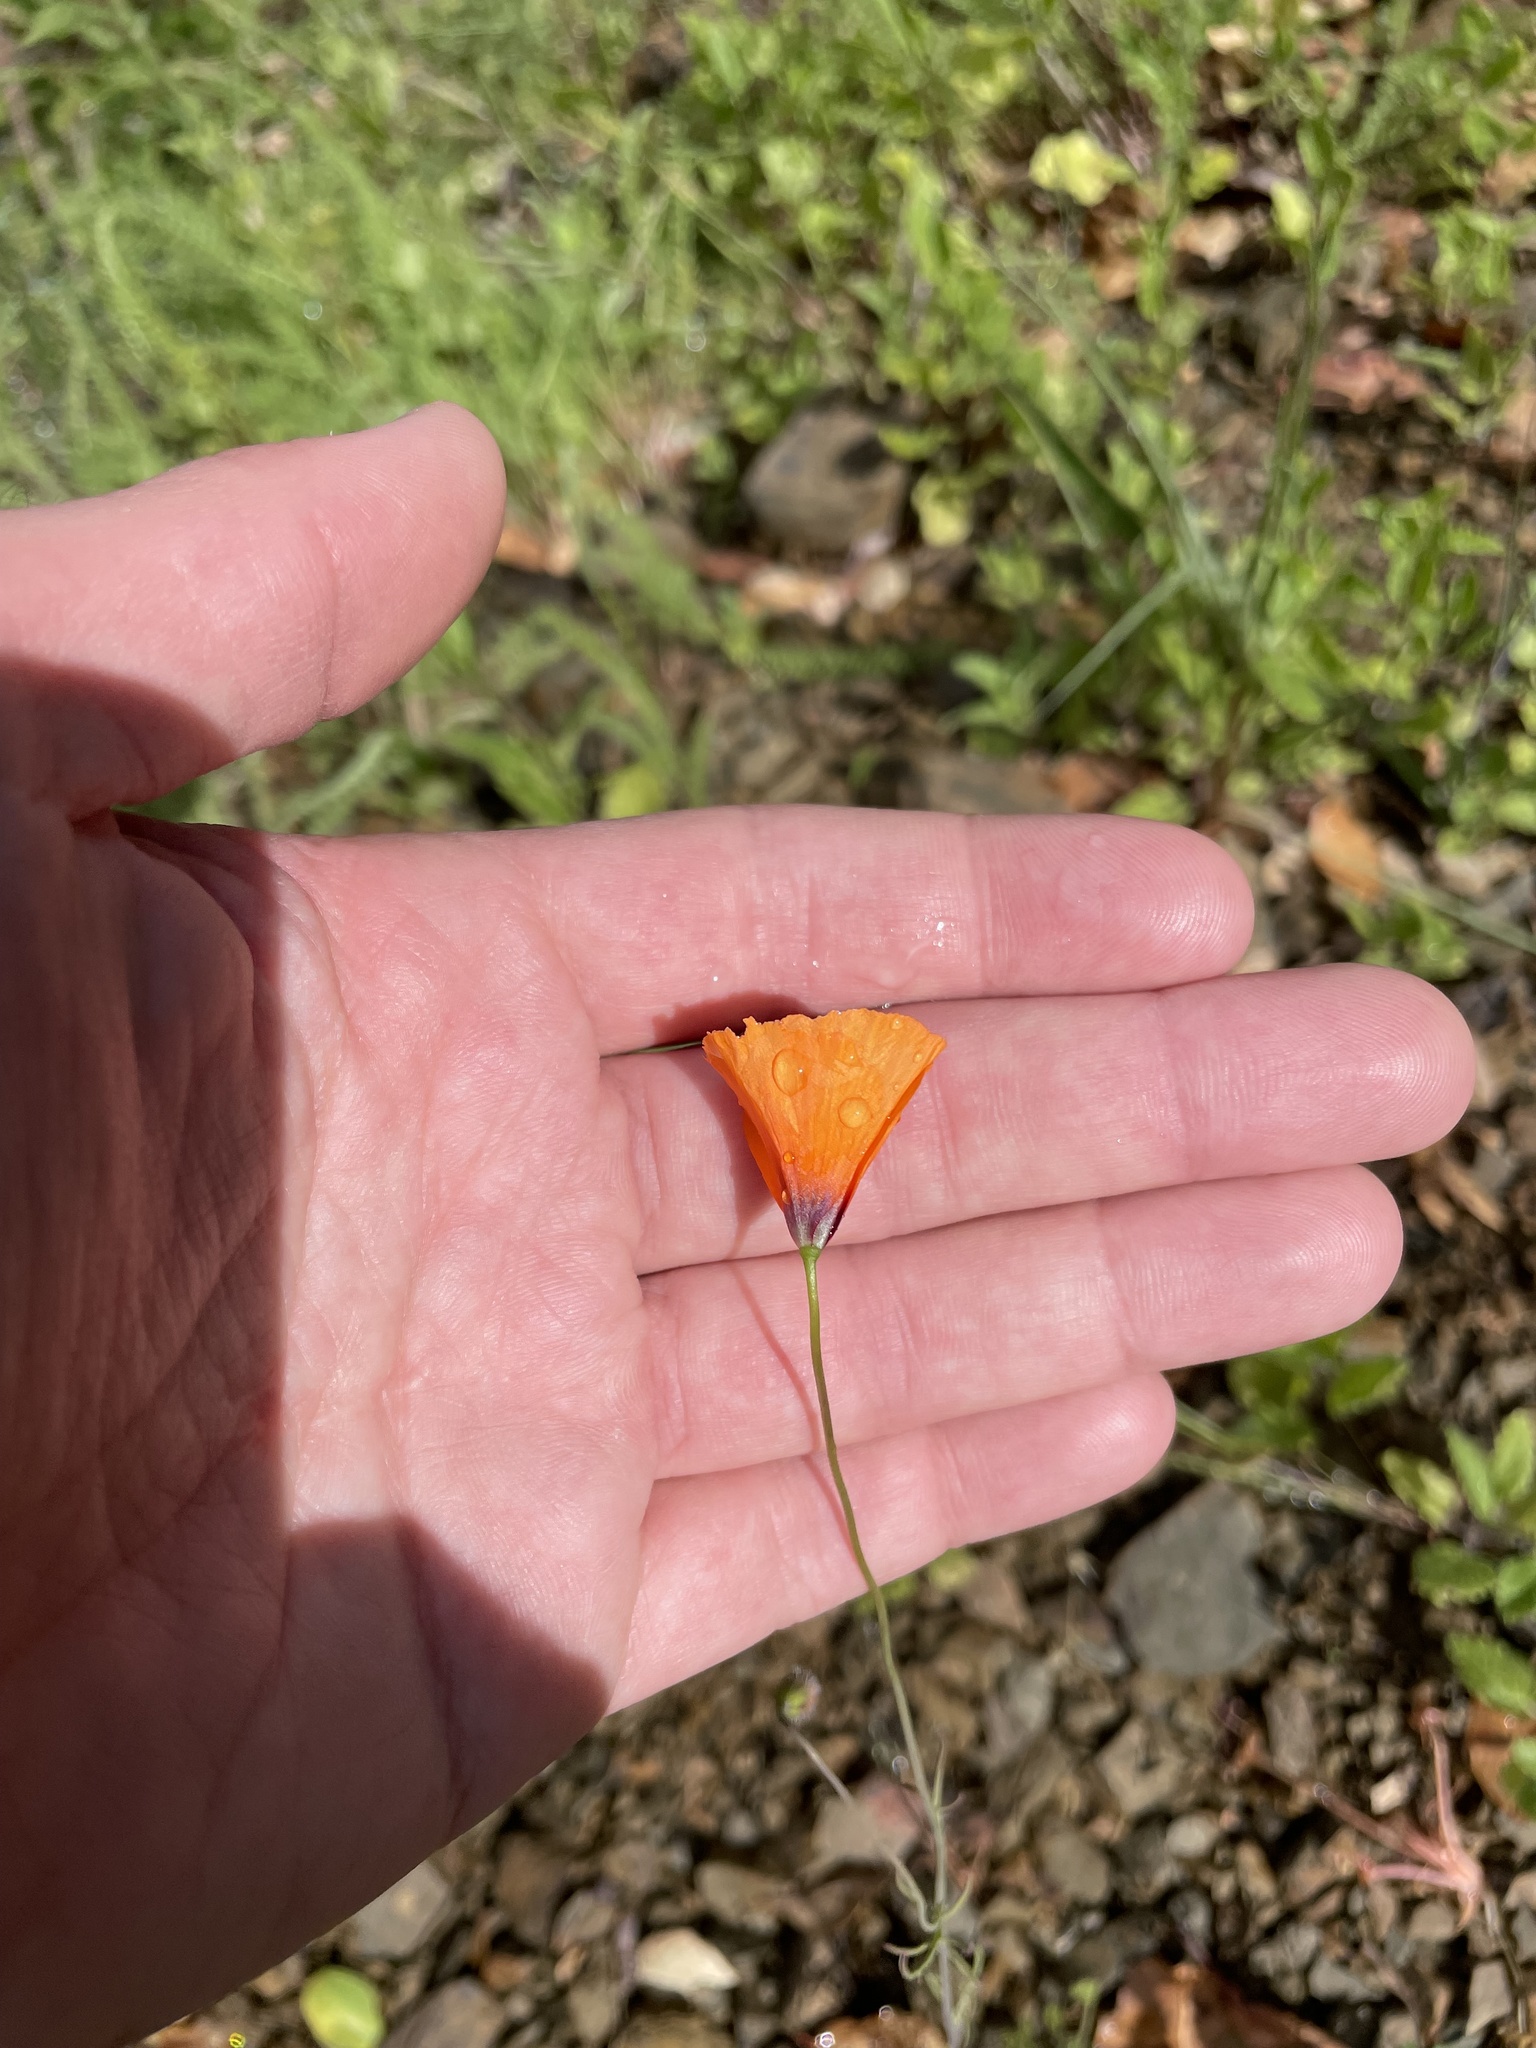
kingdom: Plantae
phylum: Tracheophyta
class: Magnoliopsida
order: Ranunculales
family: Papaveraceae
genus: Stylomecon
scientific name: Stylomecon heterophylla
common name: Flaming-poppy
